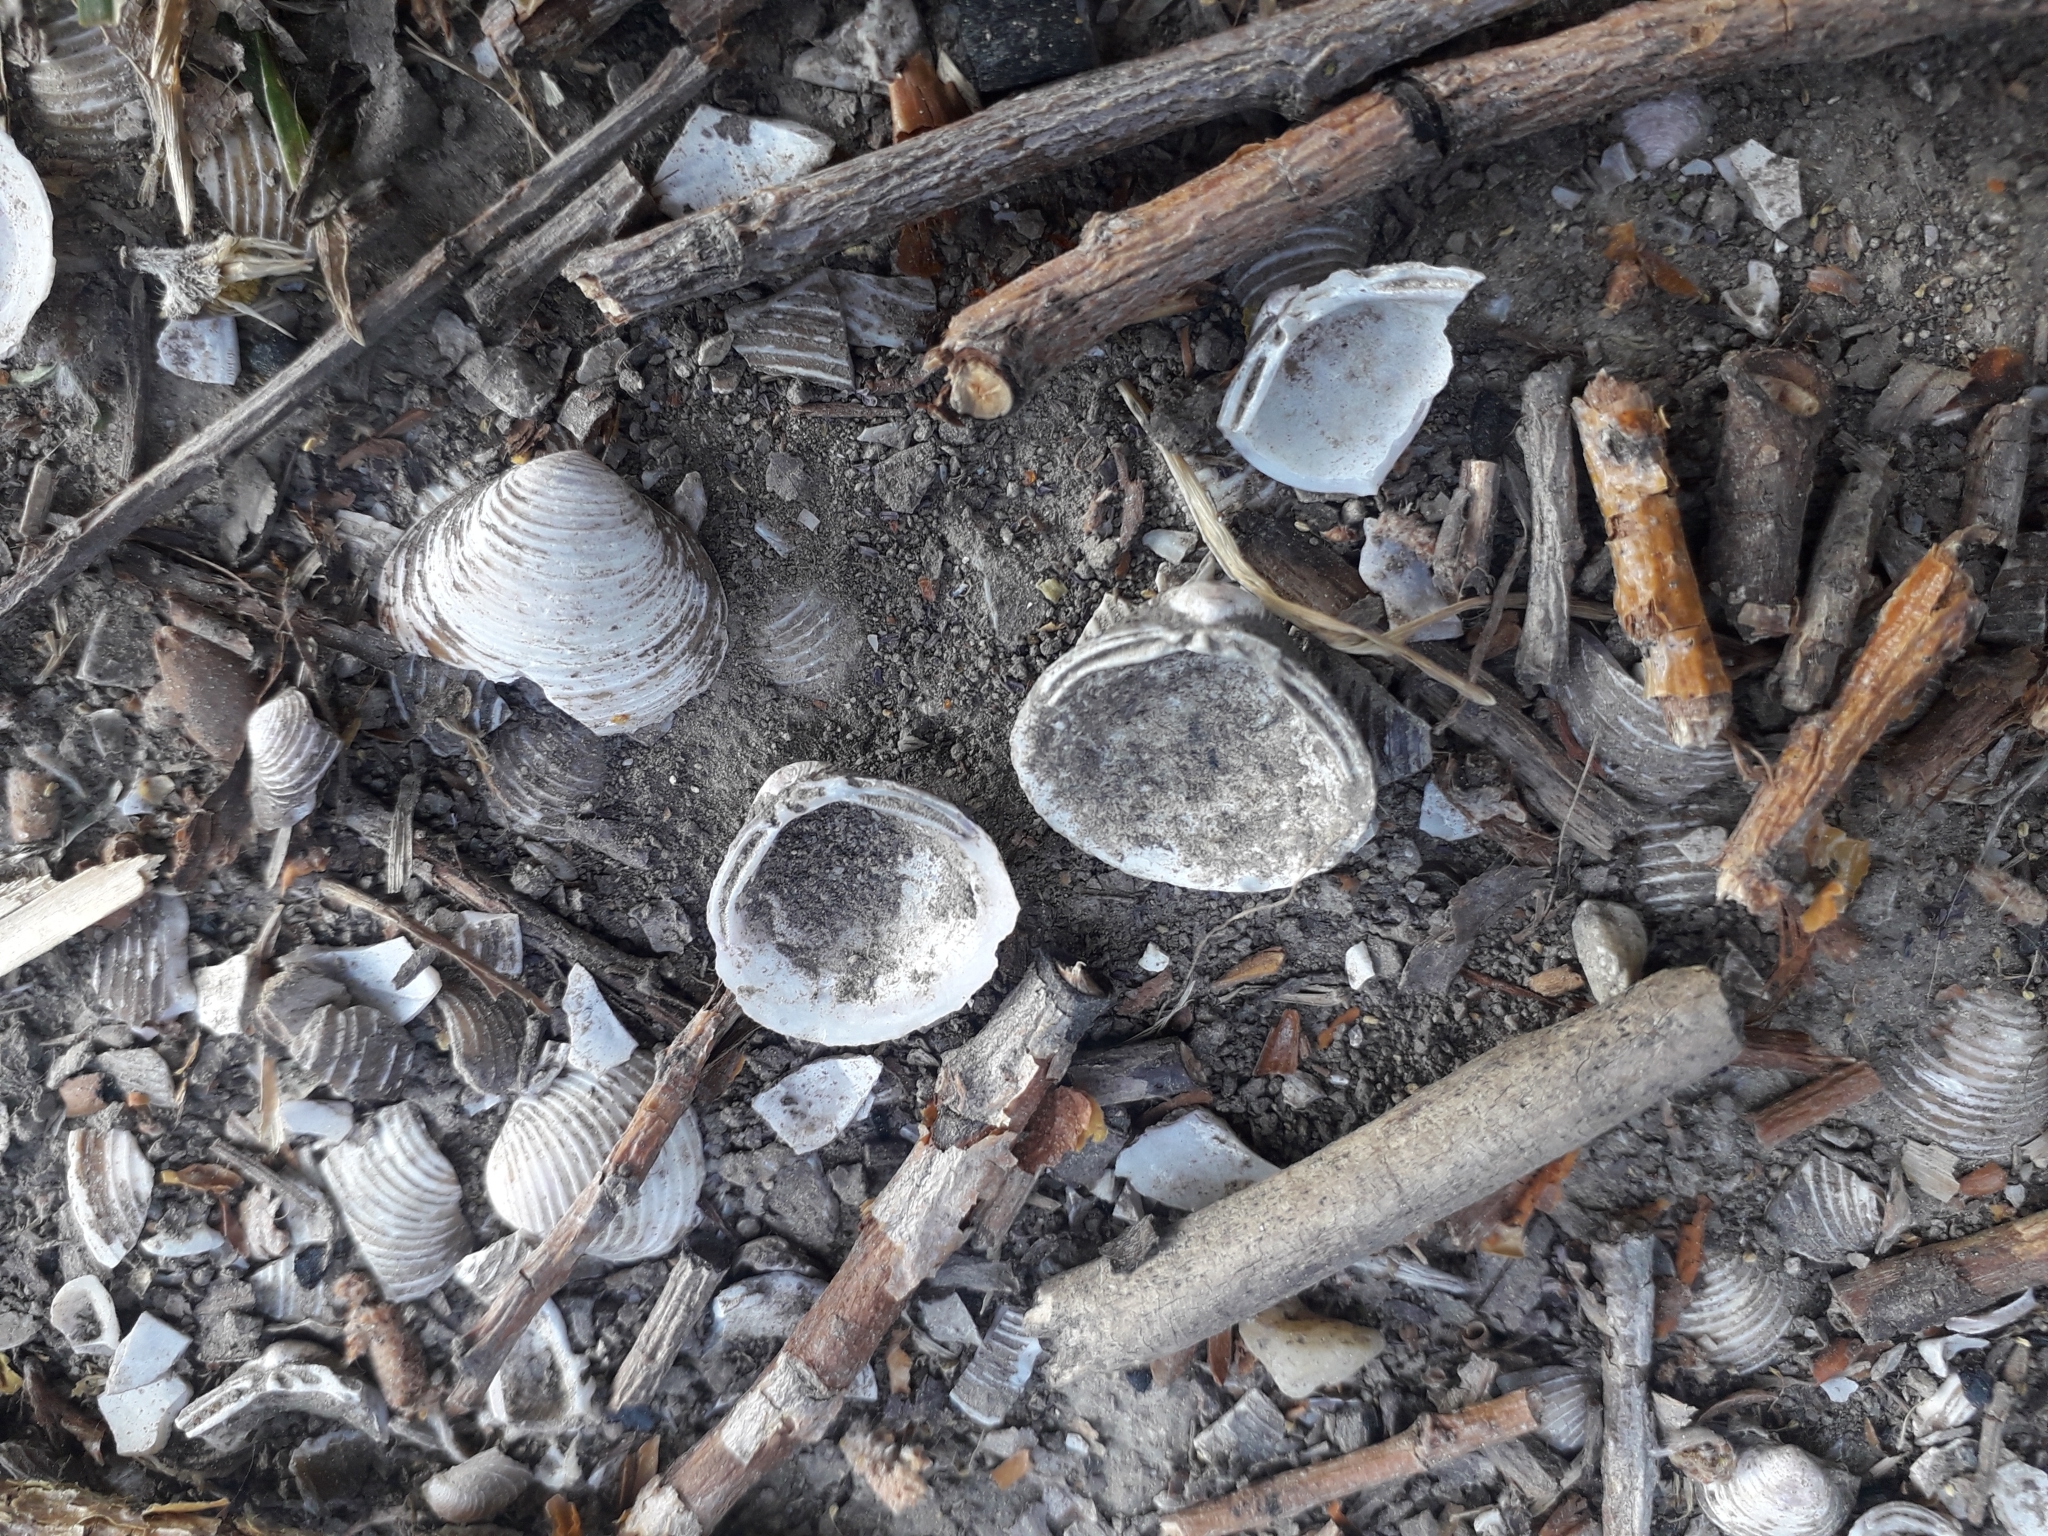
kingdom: Animalia
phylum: Mollusca
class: Bivalvia
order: Venerida
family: Cyrenidae
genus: Corbicula
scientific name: Corbicula fluminea
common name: Asian clam
